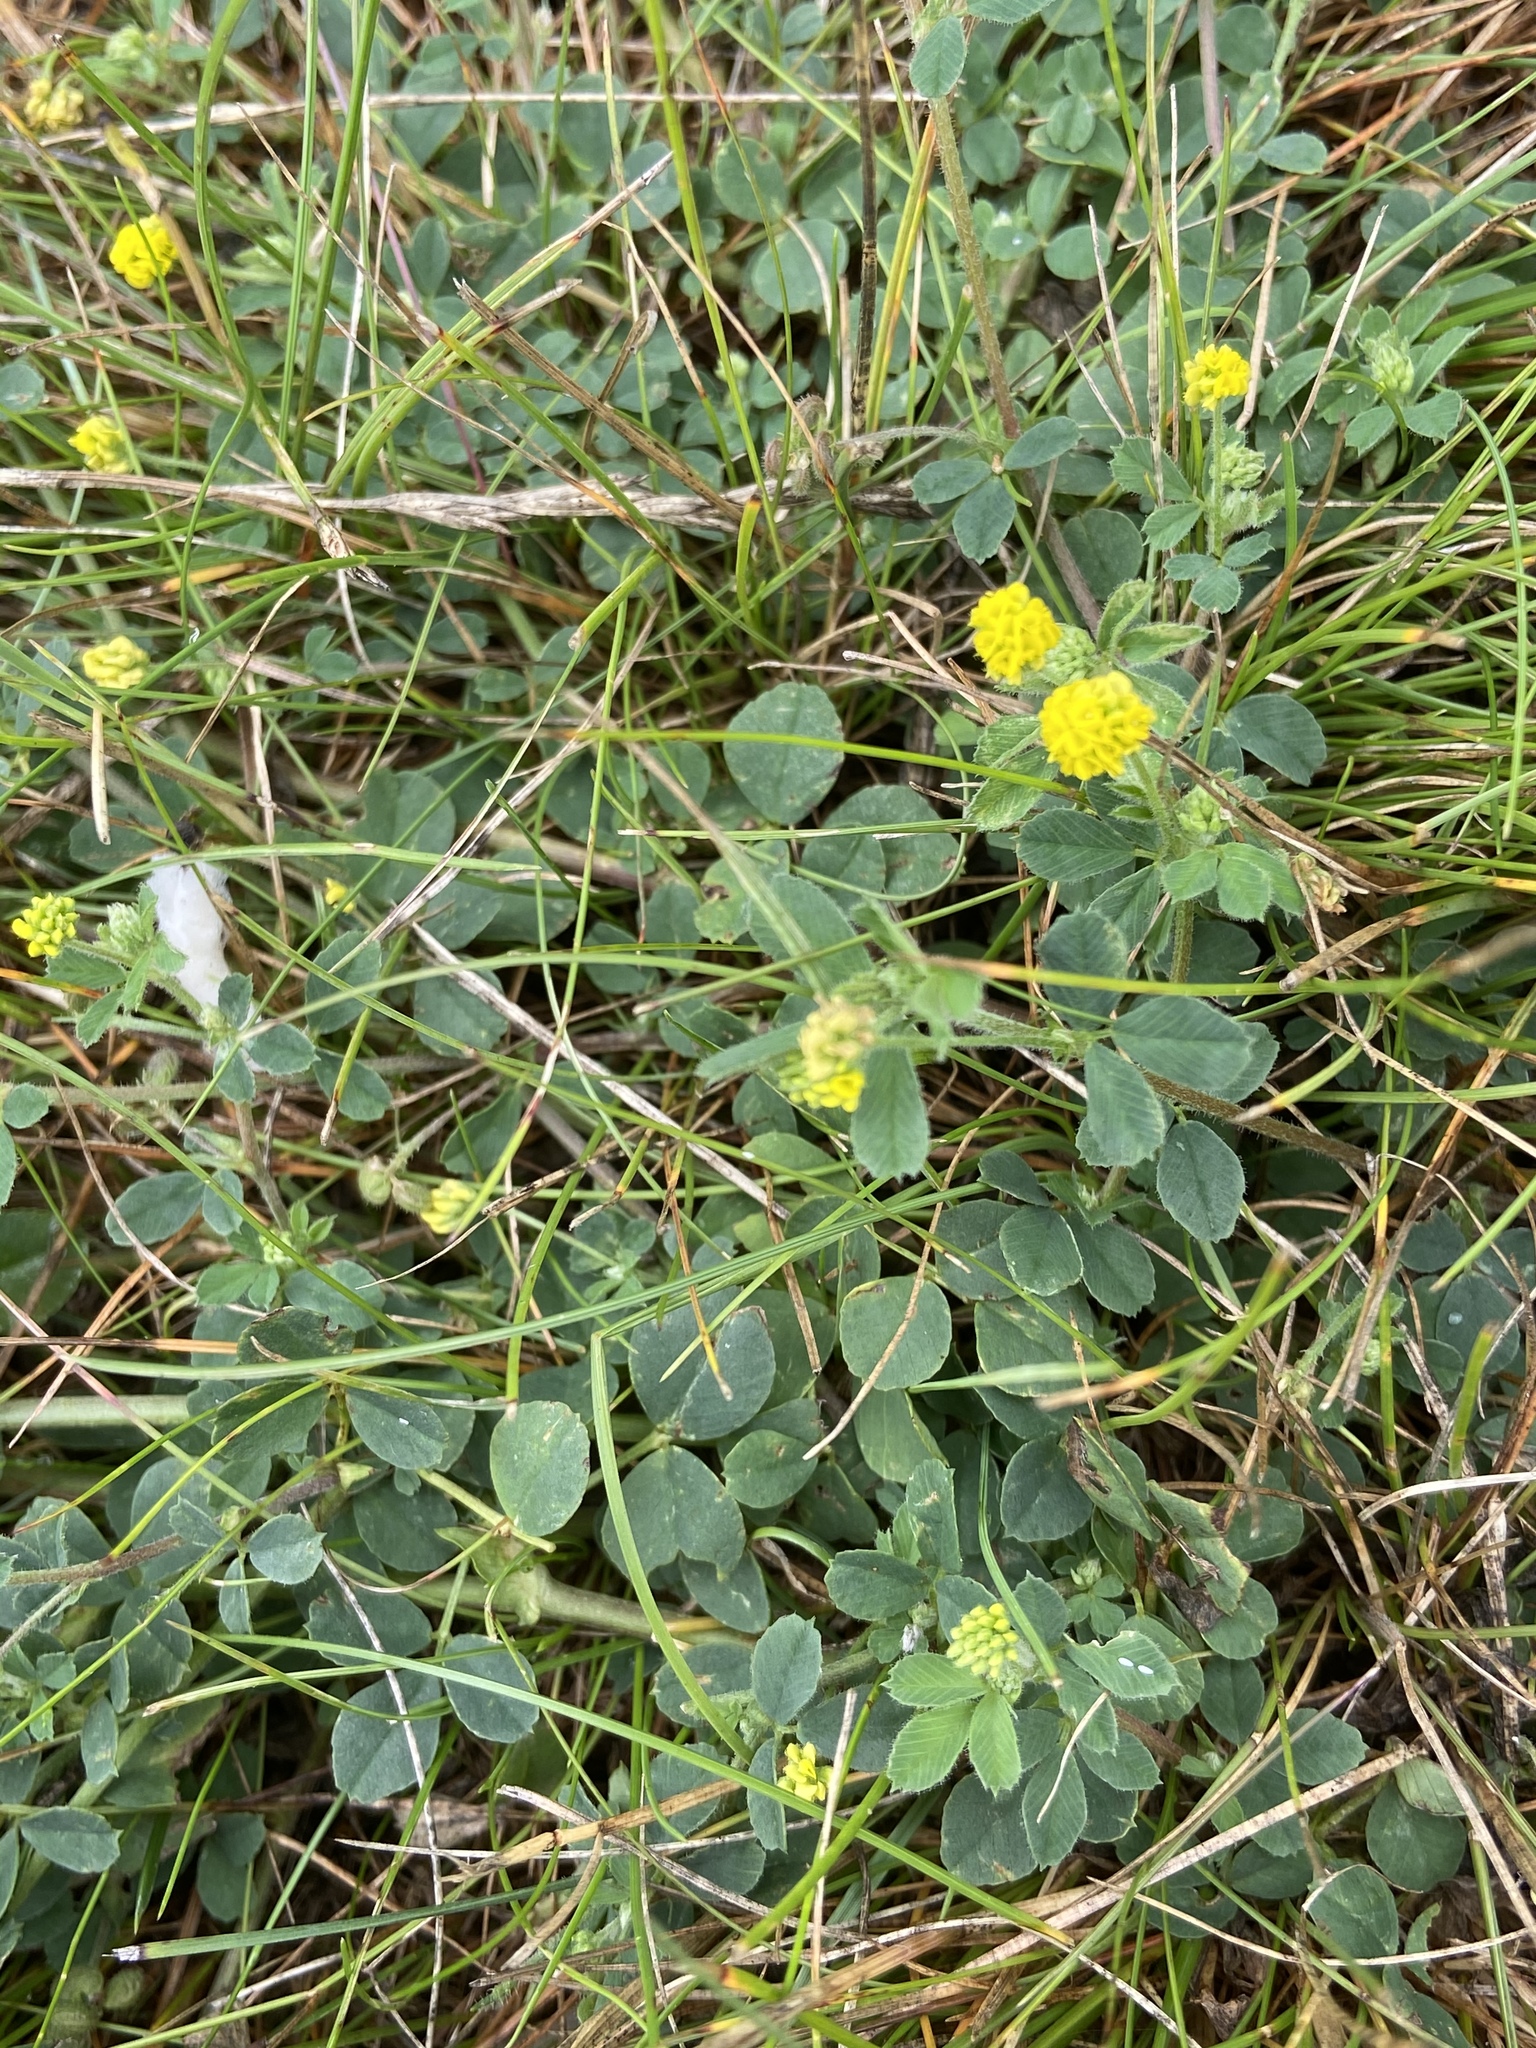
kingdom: Plantae
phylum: Tracheophyta
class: Magnoliopsida
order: Fabales
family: Fabaceae
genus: Medicago
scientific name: Medicago lupulina
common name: Black medick
